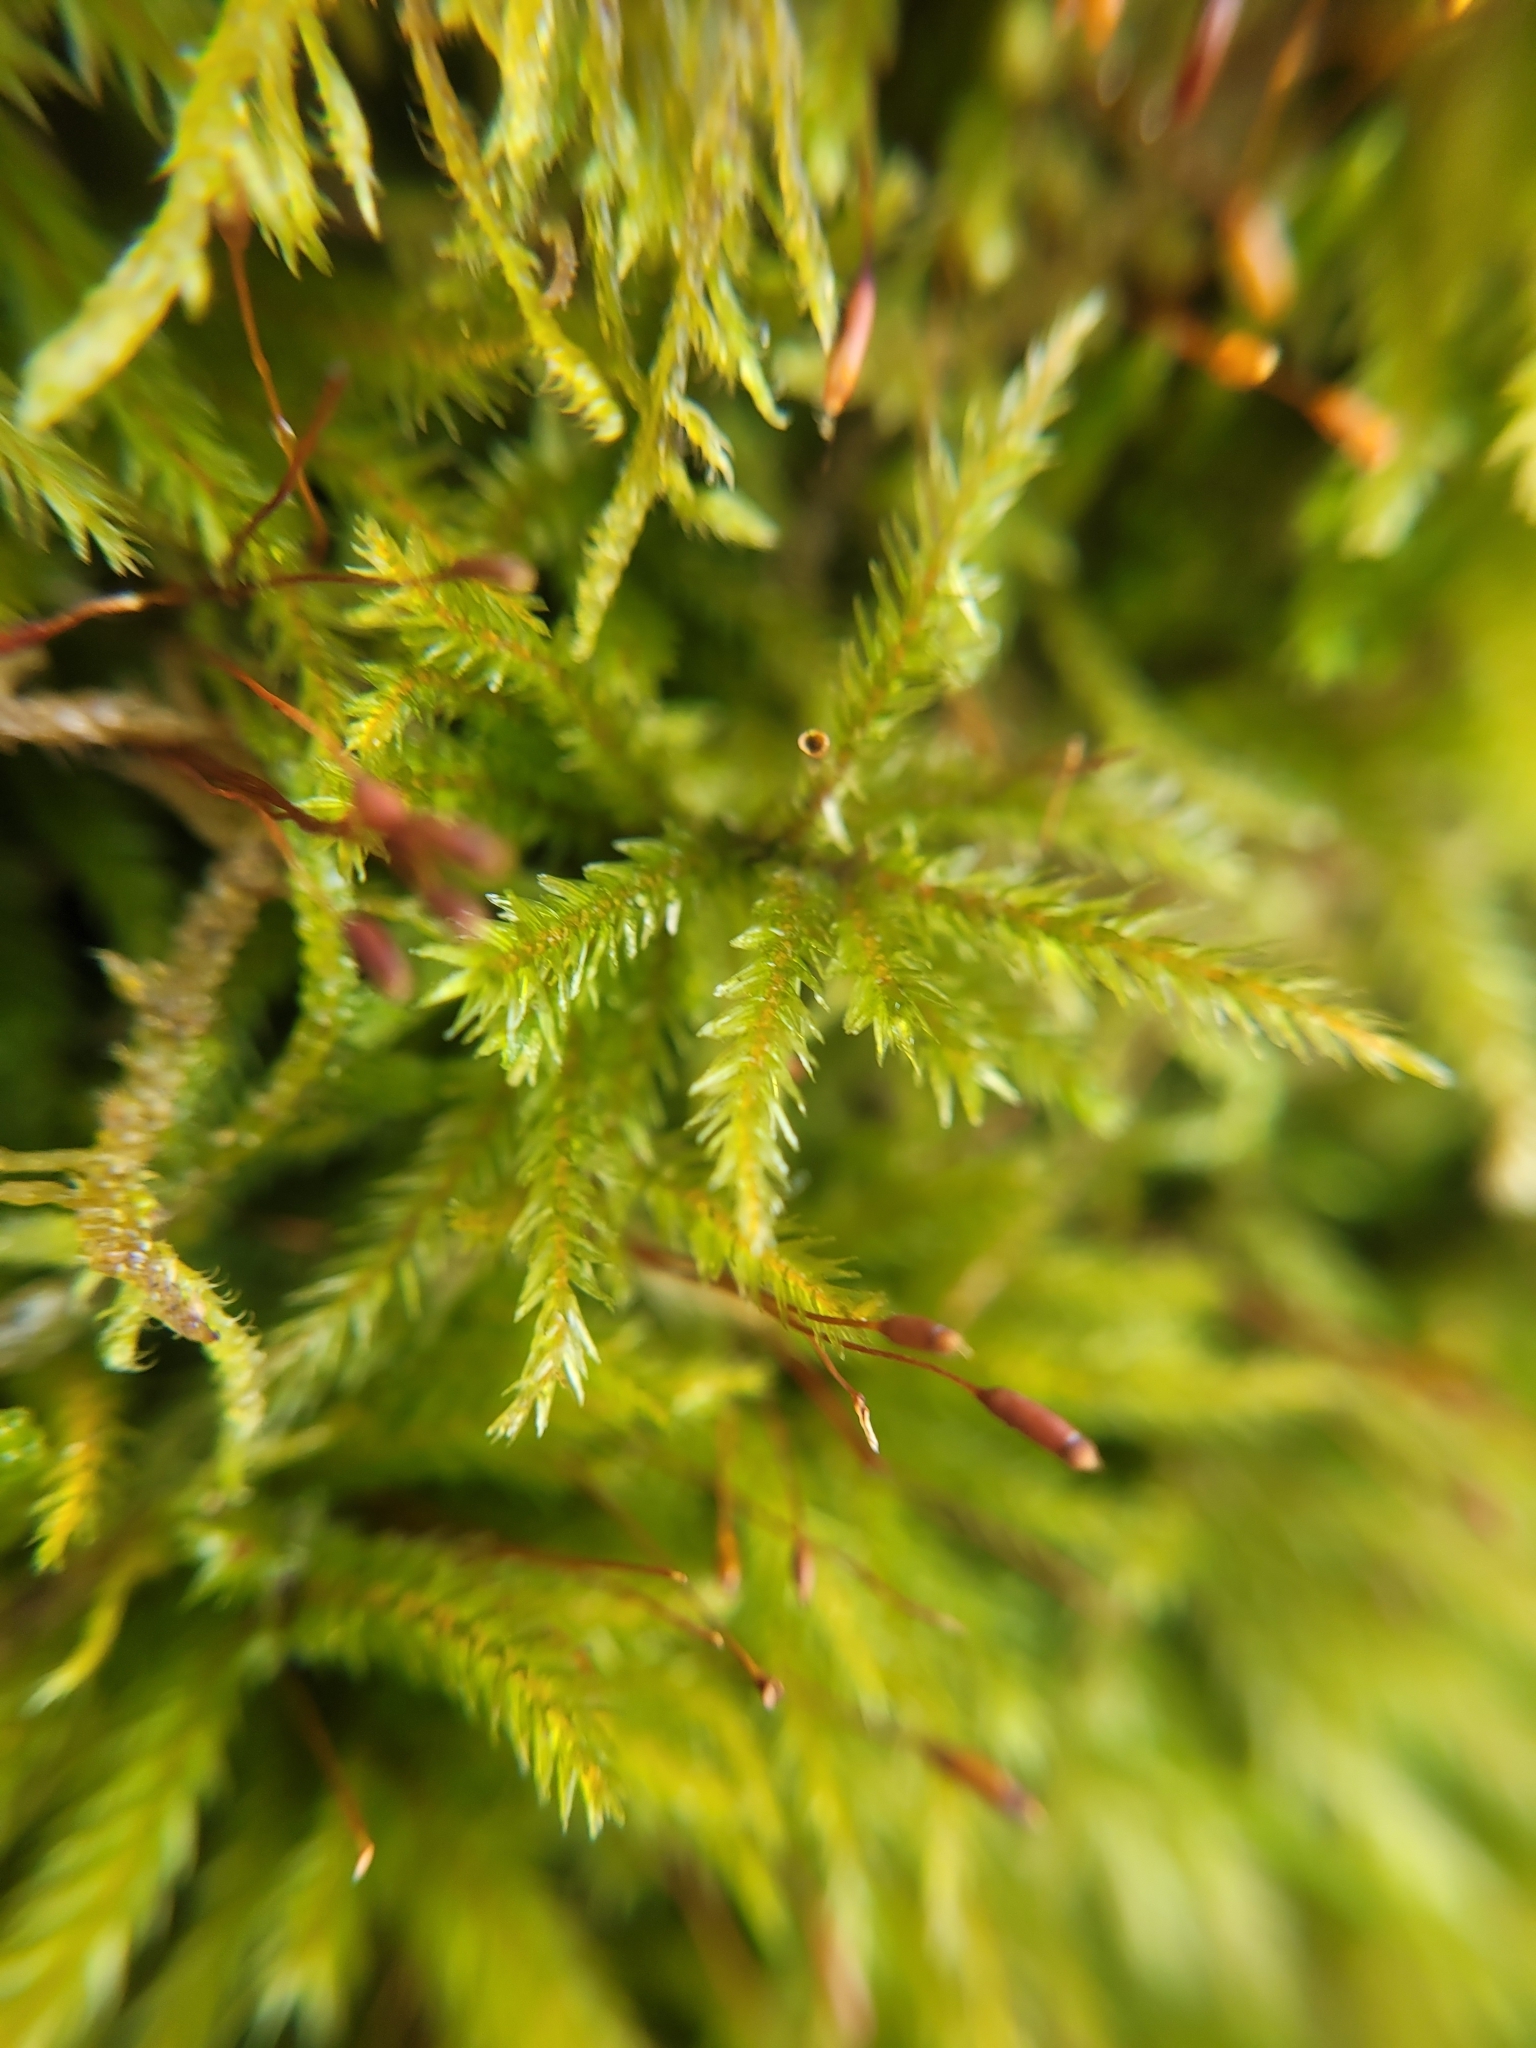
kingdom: Plantae
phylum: Bryophyta
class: Bryopsida
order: Hypnales
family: Climaciaceae
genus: Climacium
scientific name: Climacium dendroides
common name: Northern tree moss
